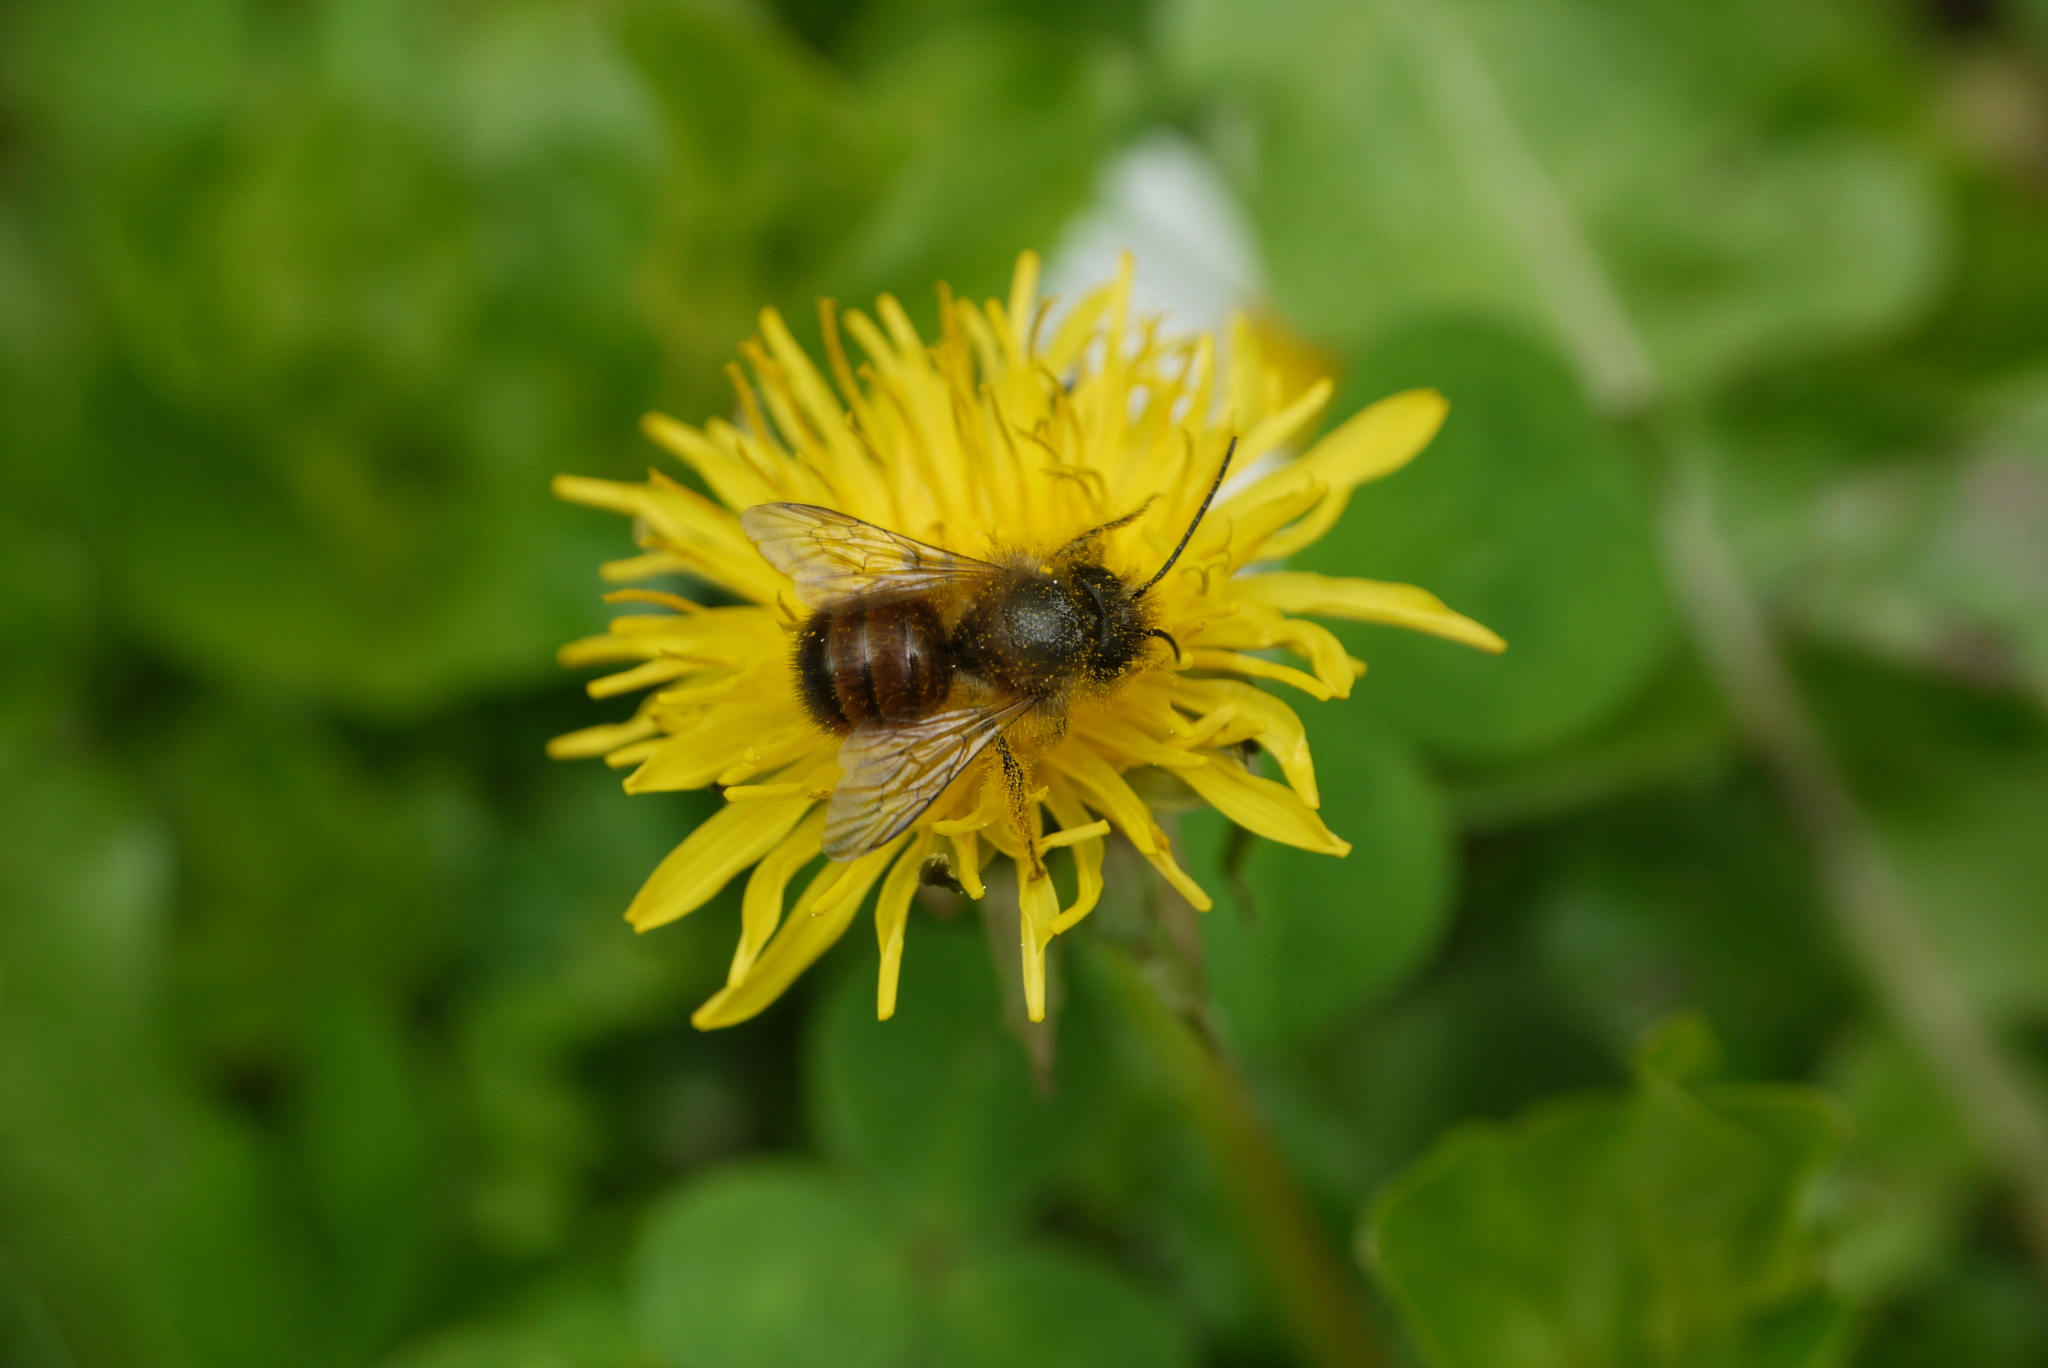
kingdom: Animalia
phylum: Arthropoda
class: Insecta
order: Hymenoptera
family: Megachilidae
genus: Osmia
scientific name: Osmia bicornis
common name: Red mason bee
